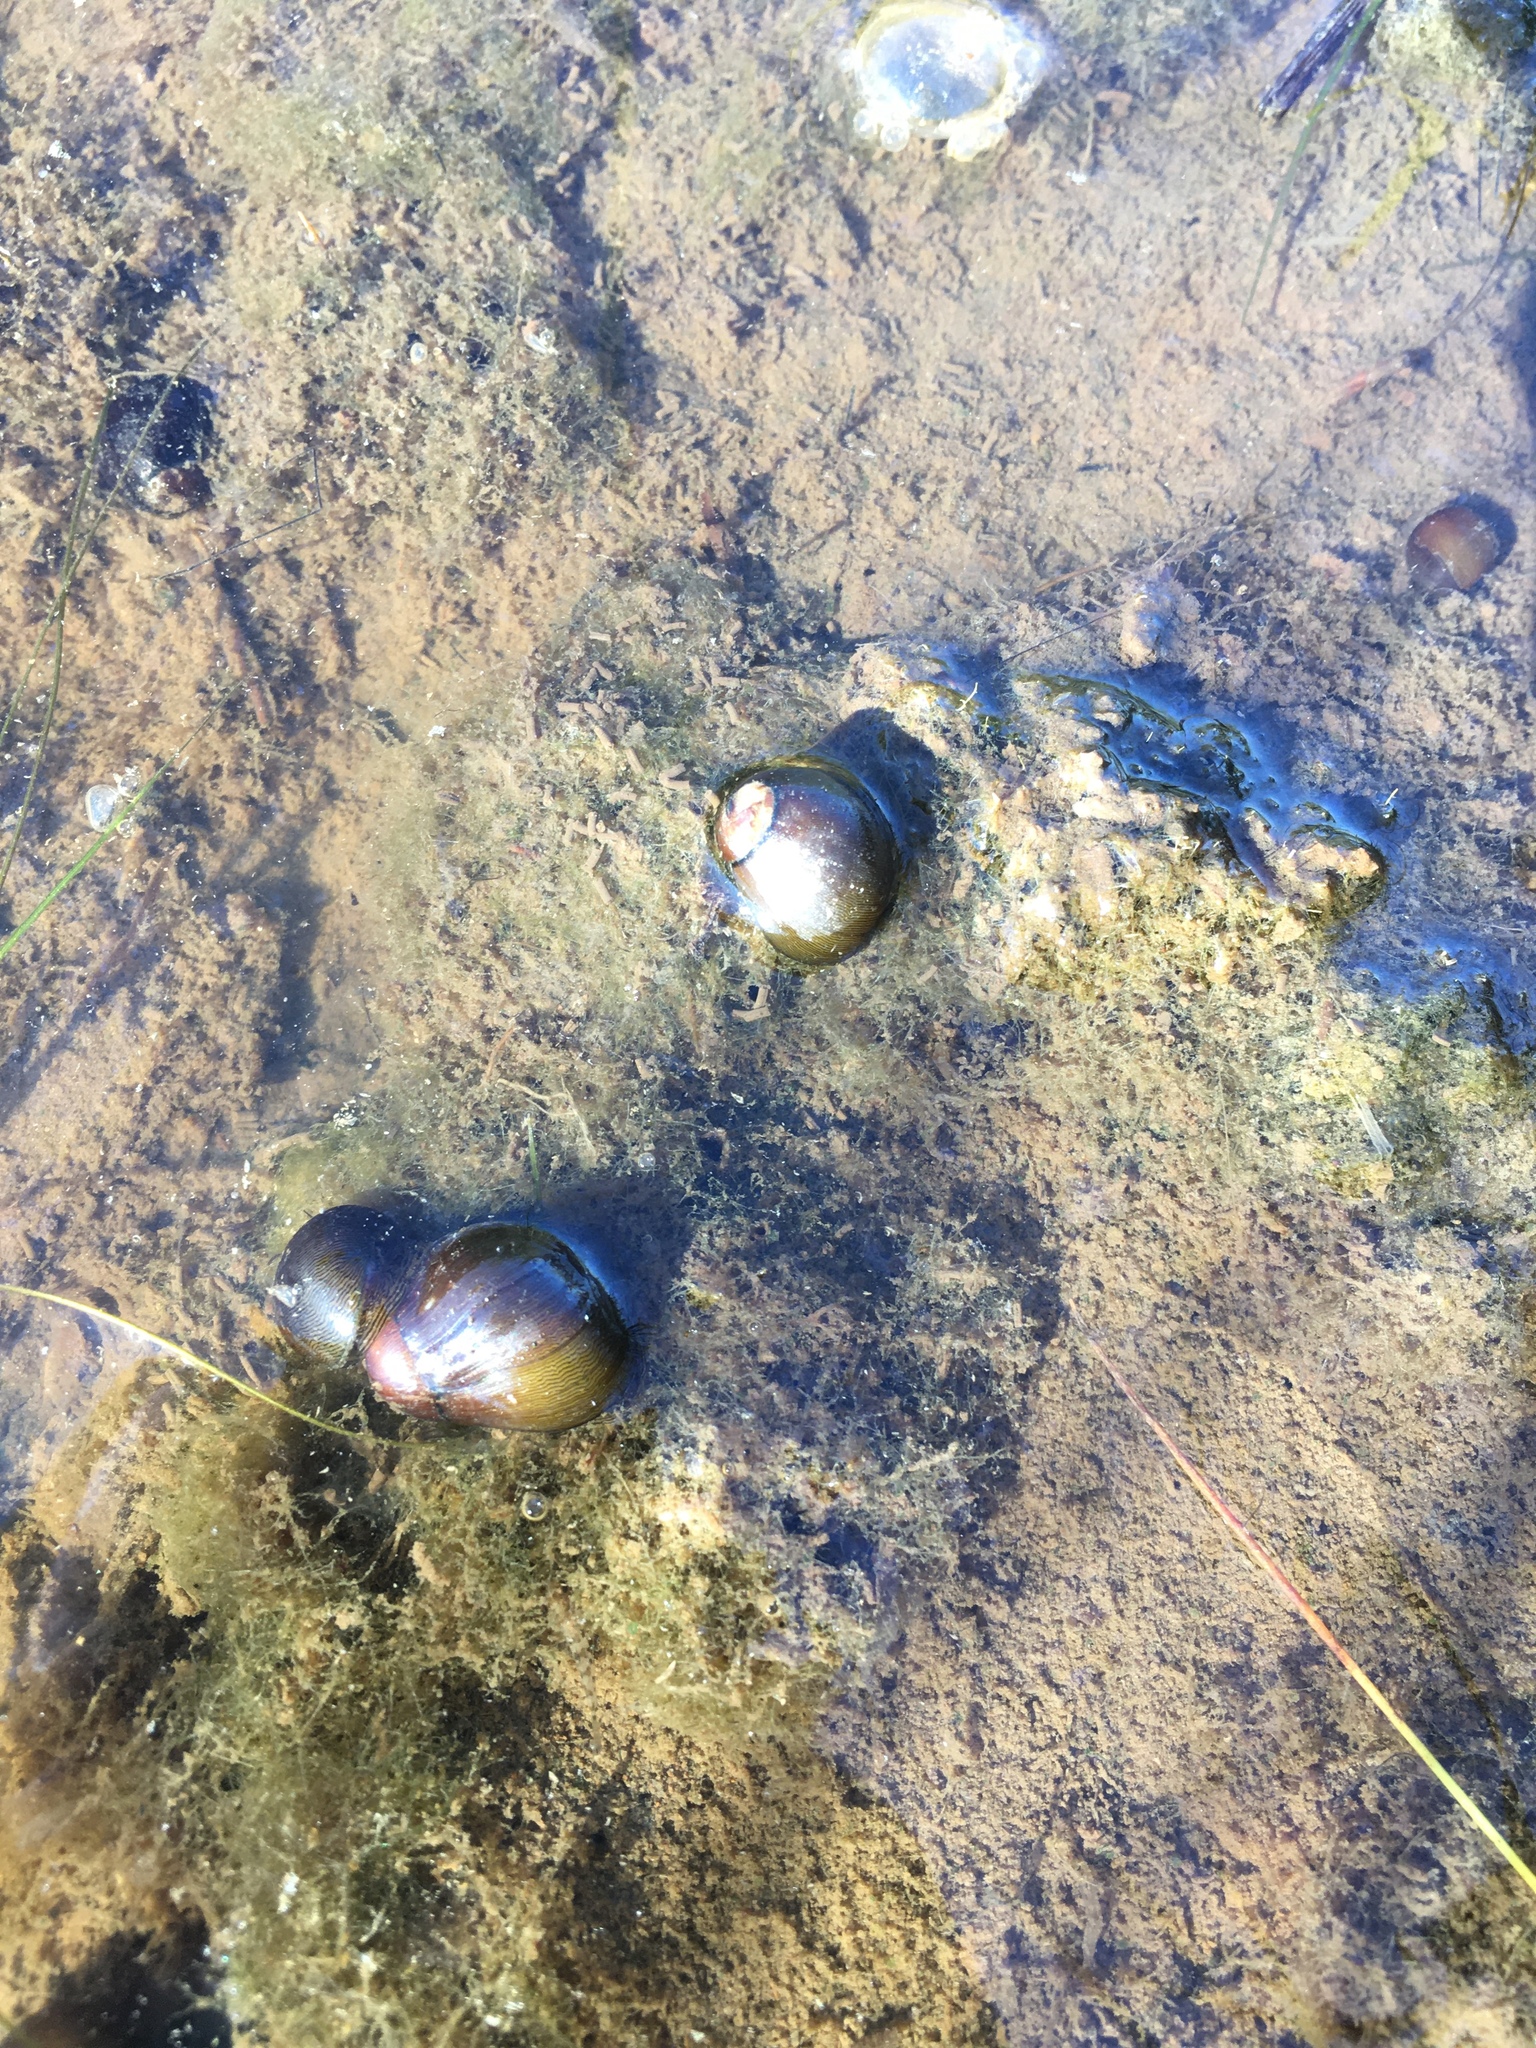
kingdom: Animalia
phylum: Mollusca
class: Gastropoda
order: Cycloneritida
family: Neritidae
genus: Vitta
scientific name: Vitta usnea
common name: Olive nerite
